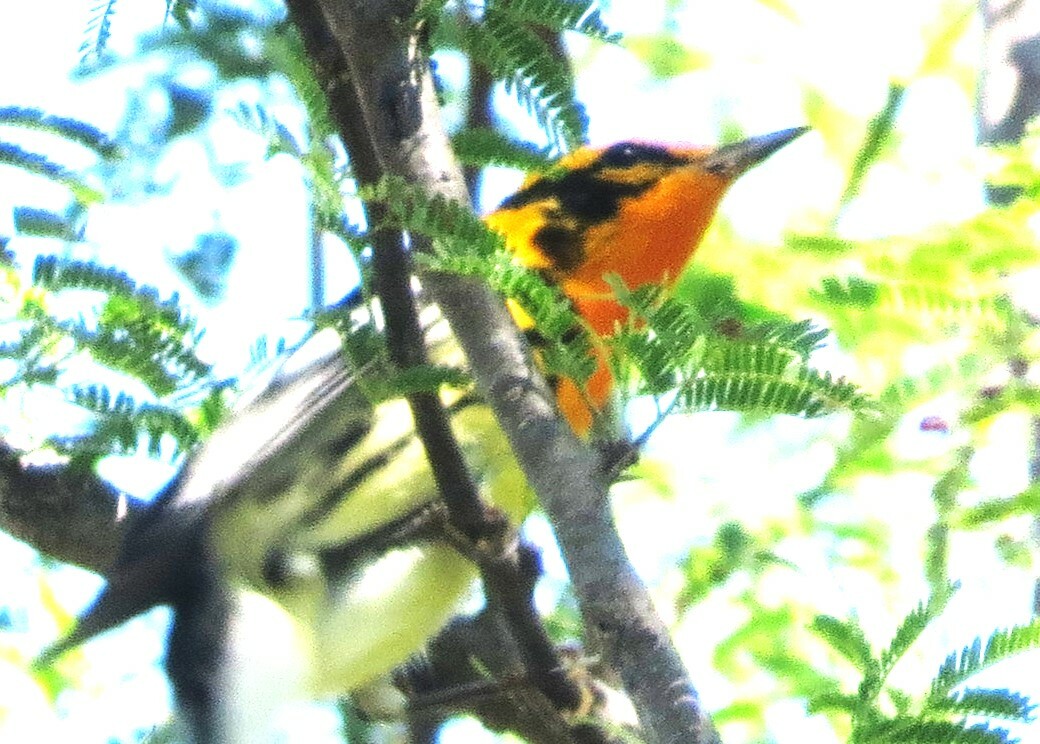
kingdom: Animalia
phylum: Chordata
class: Aves
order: Passeriformes
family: Parulidae
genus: Setophaga
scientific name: Setophaga fusca
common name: Blackburnian warbler
